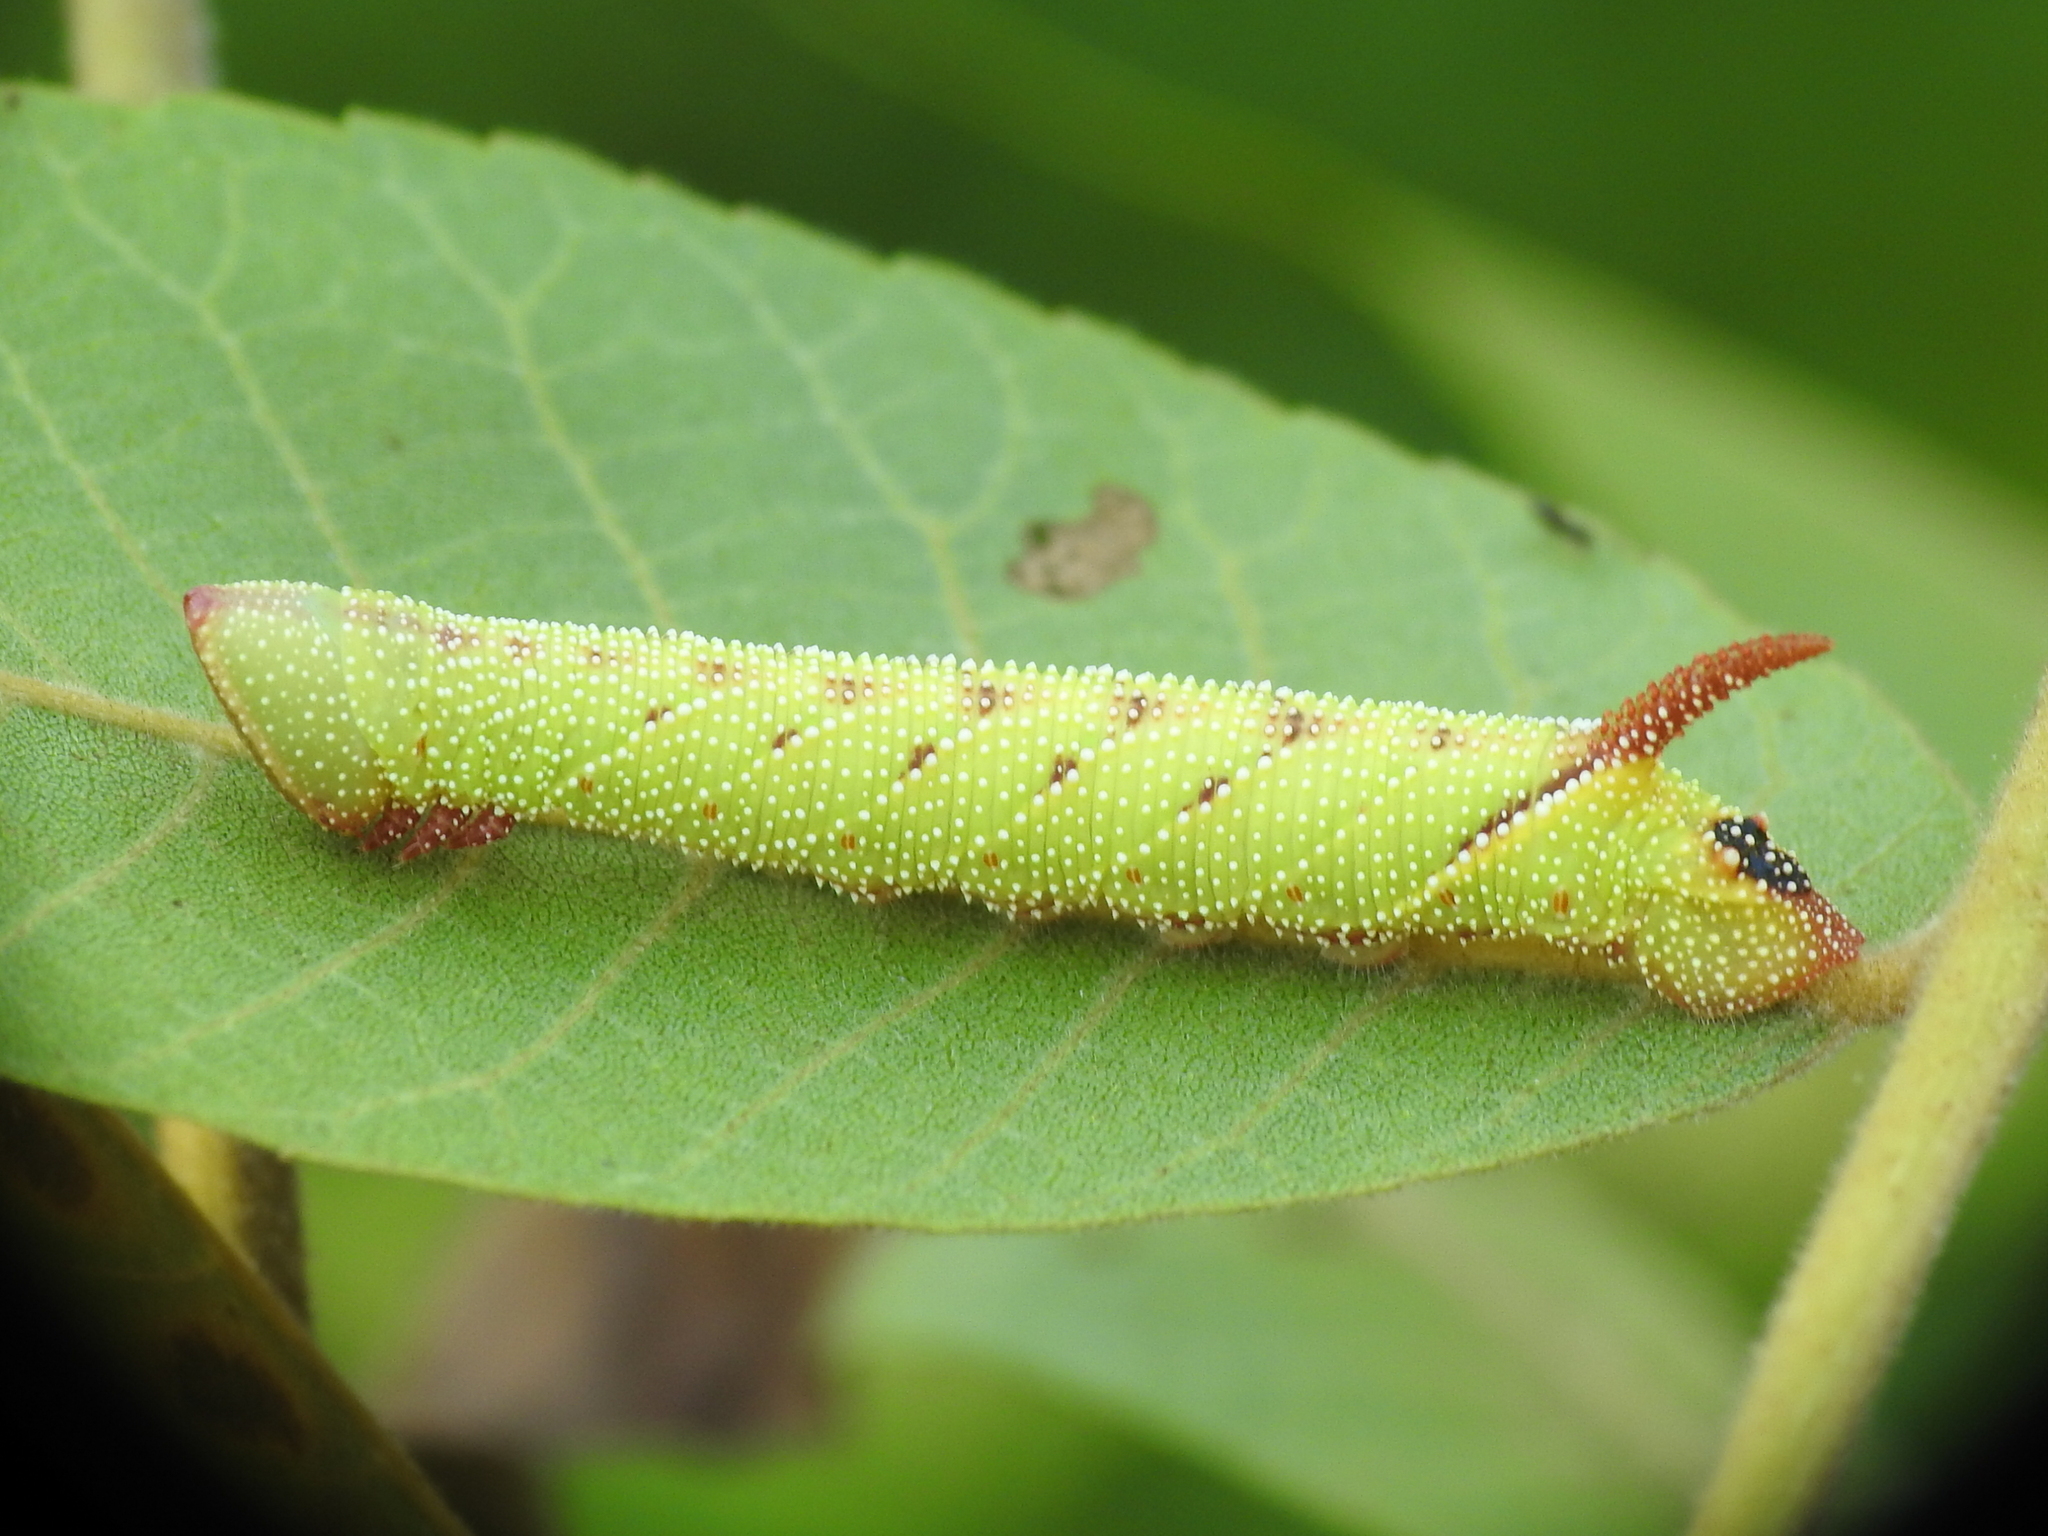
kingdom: Animalia
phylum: Arthropoda
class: Insecta
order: Lepidoptera
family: Sphingidae
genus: Amorpha
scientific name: Amorpha juglandis
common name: Walnut sphinx
